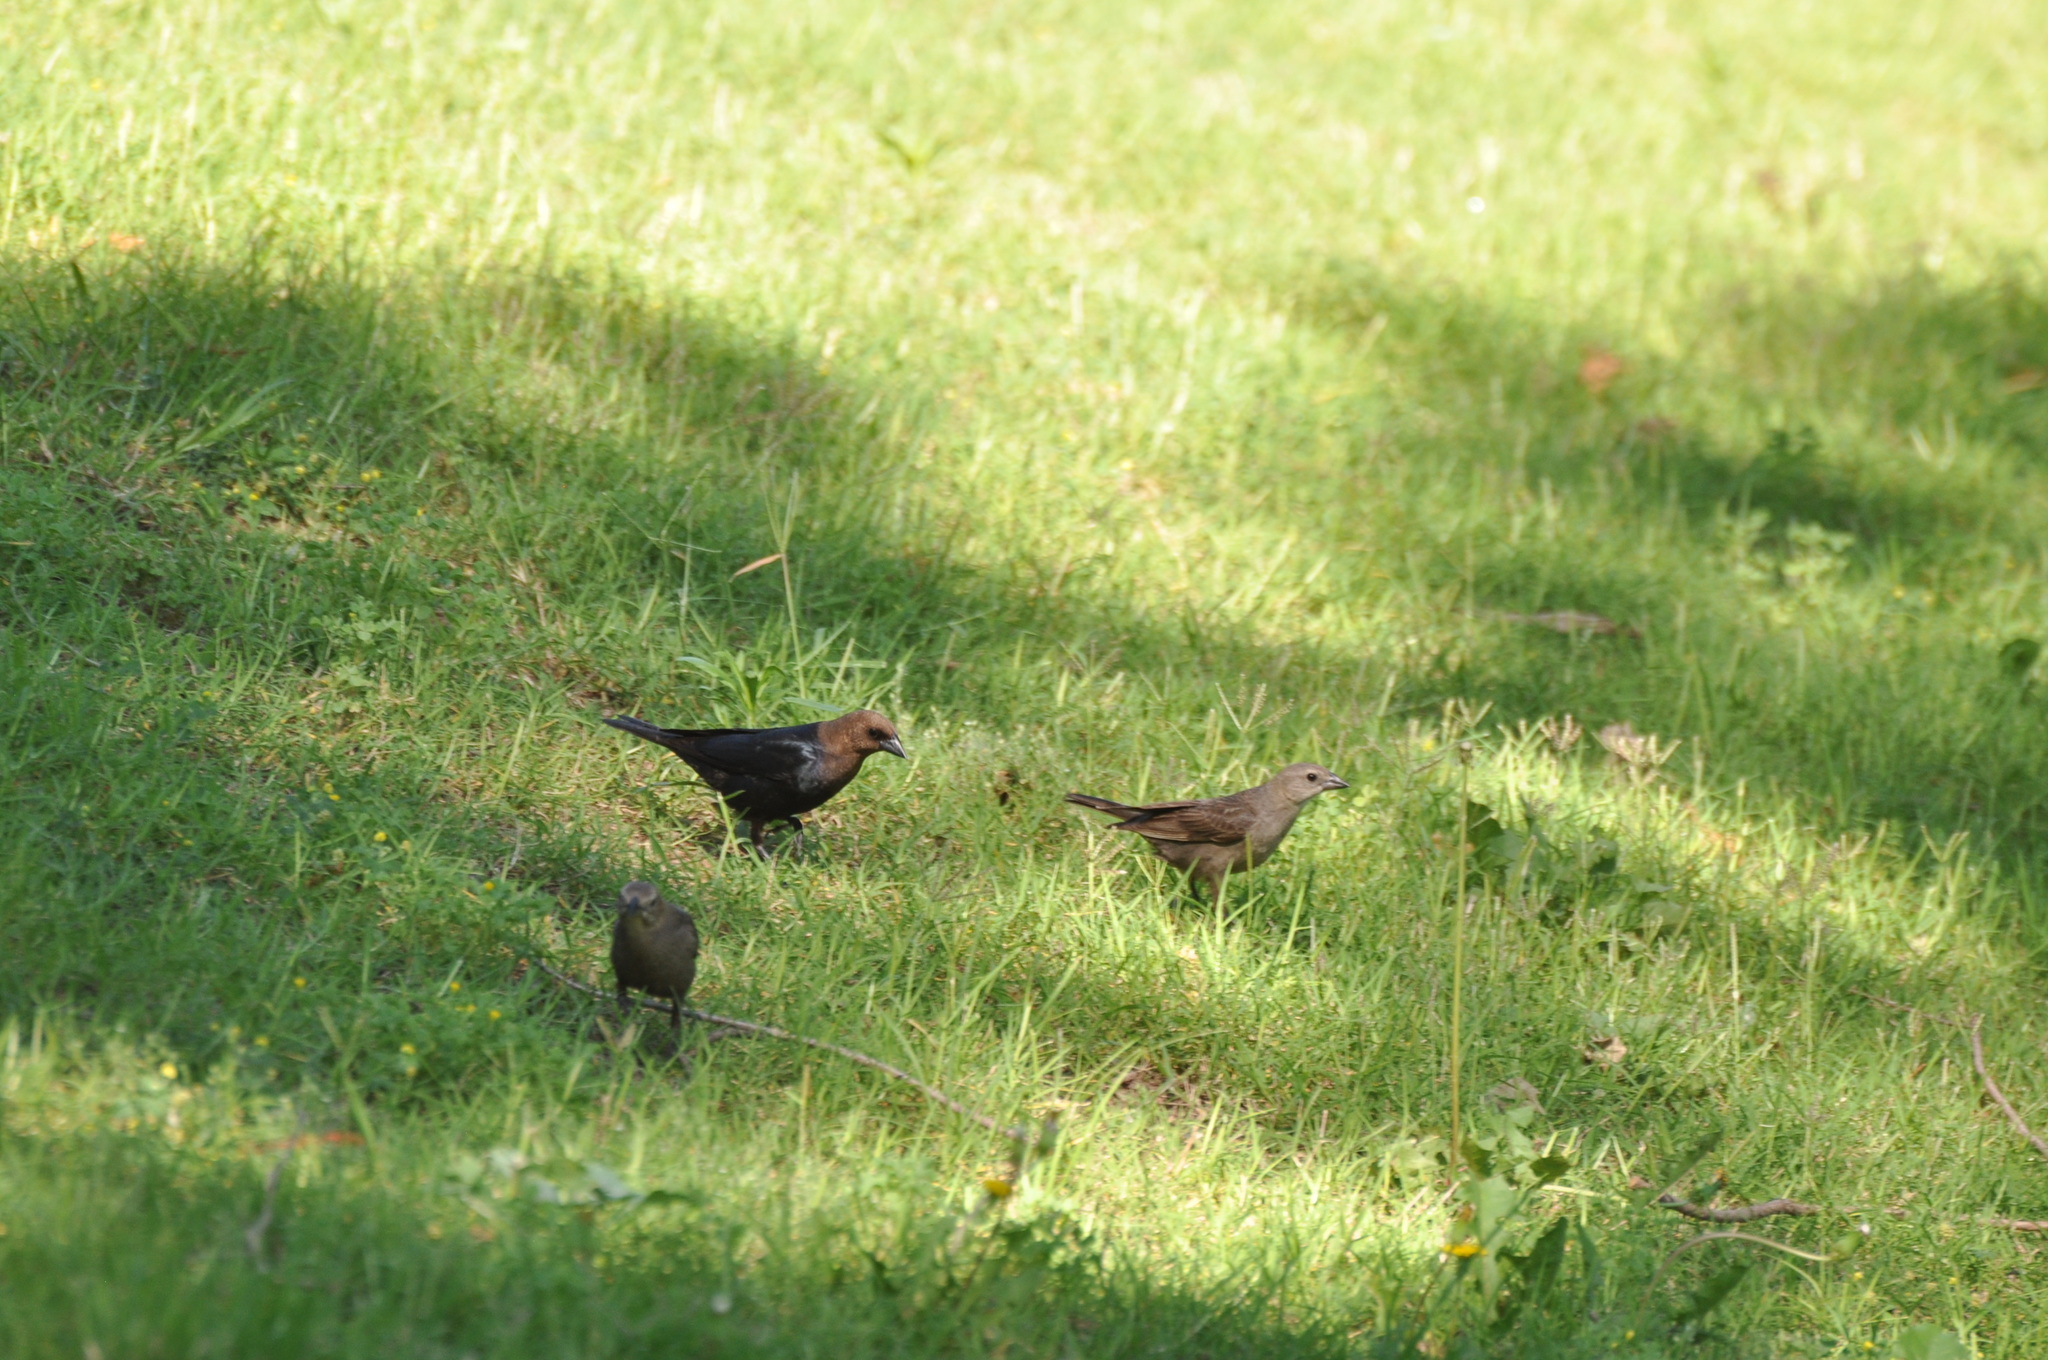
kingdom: Animalia
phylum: Chordata
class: Aves
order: Passeriformes
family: Icteridae
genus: Molothrus
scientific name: Molothrus ater
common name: Brown-headed cowbird
